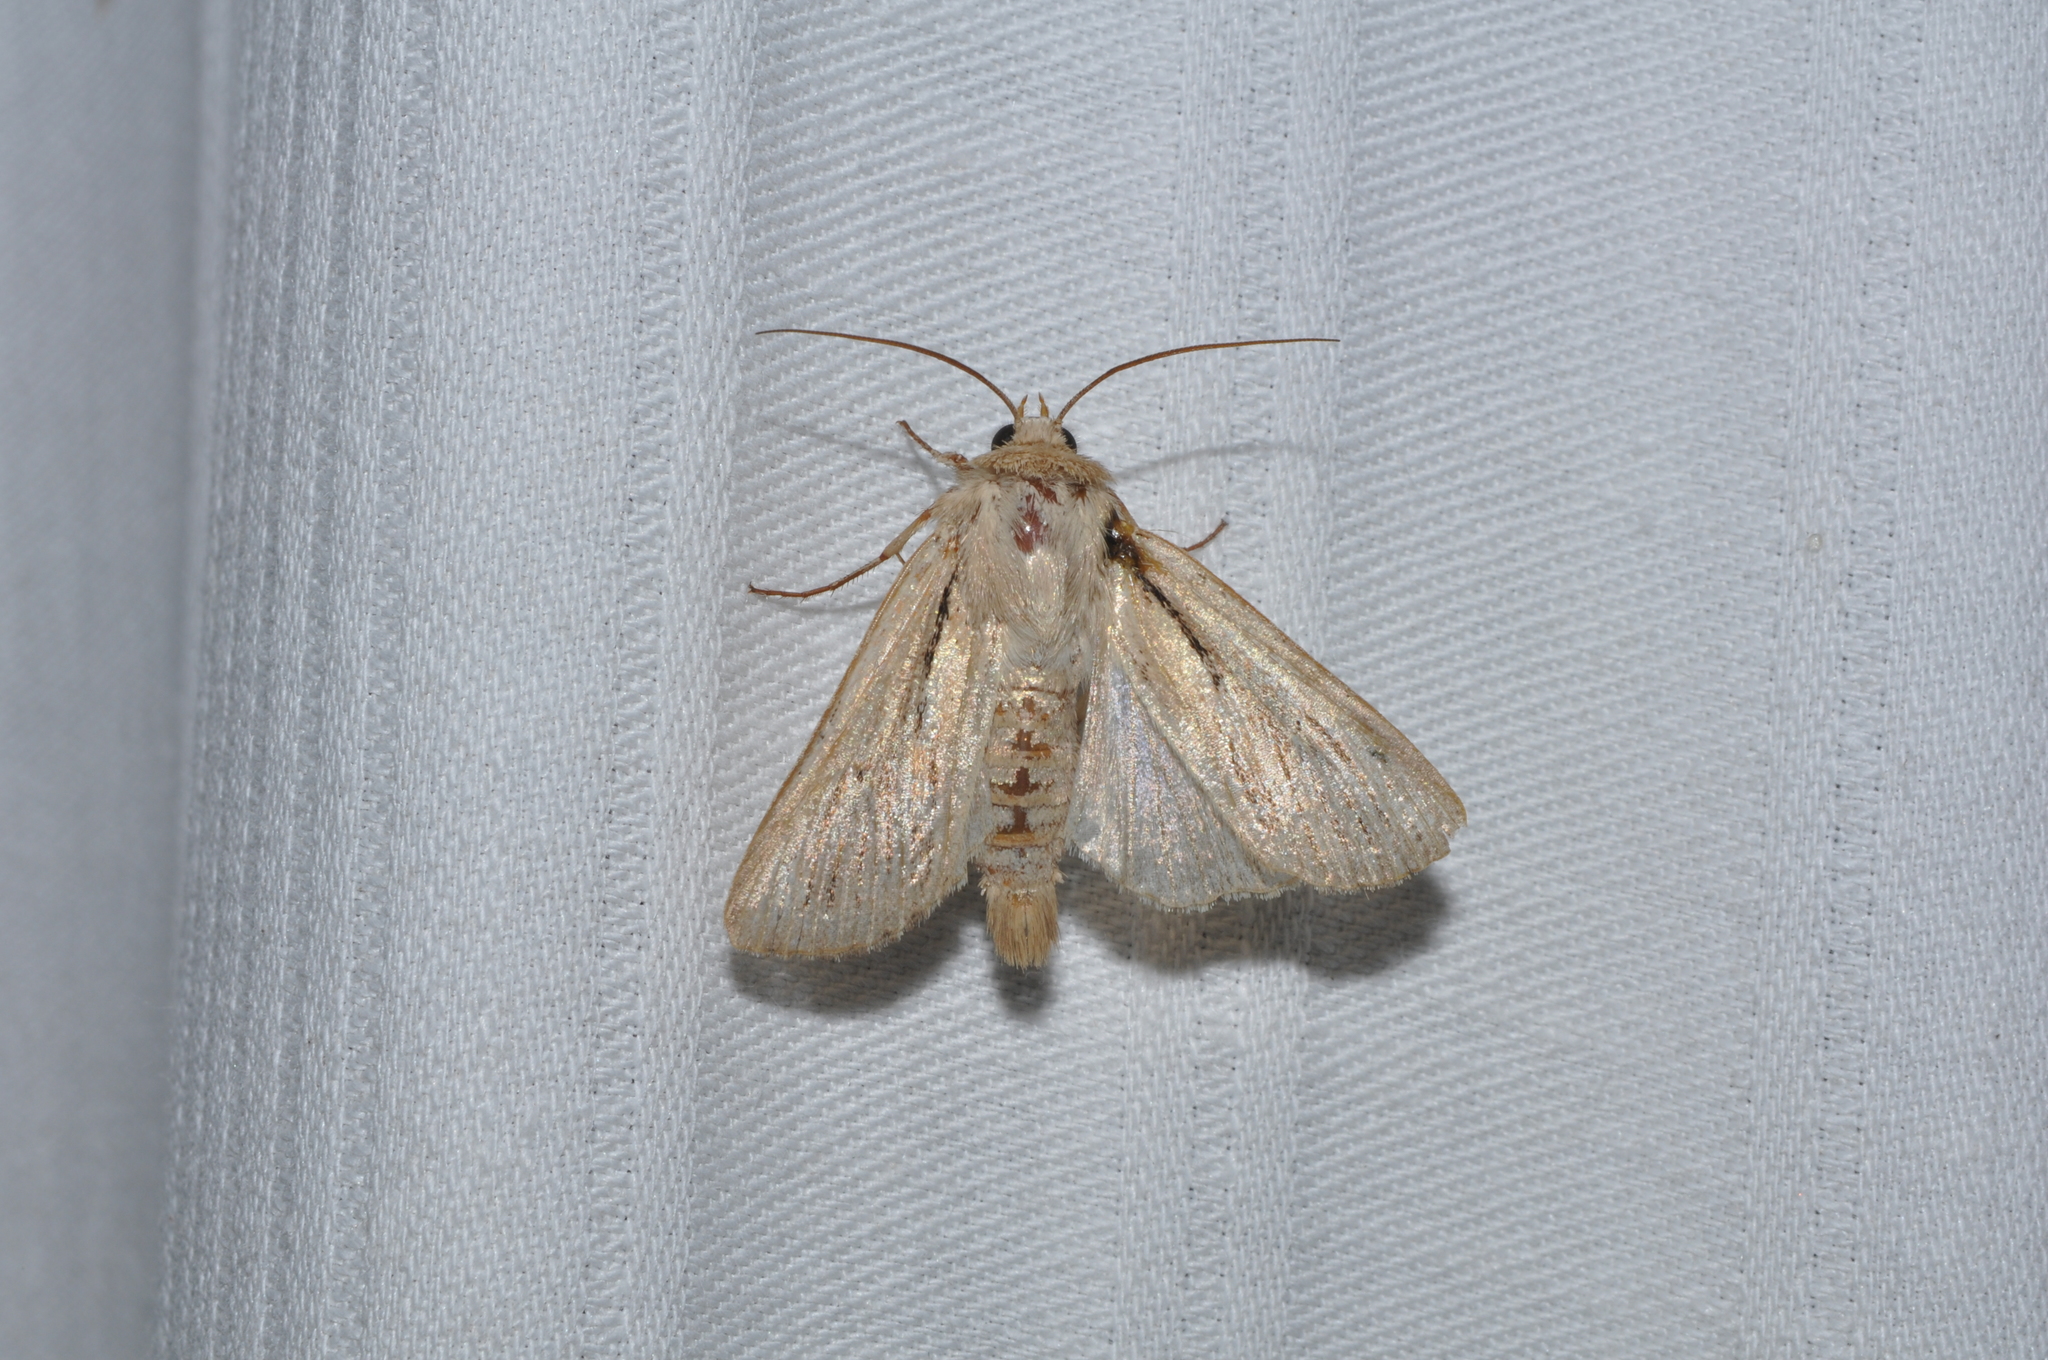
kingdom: Animalia
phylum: Arthropoda
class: Insecta
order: Lepidoptera
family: Noctuidae
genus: Leucania
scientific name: Leucania comma
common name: Shoulder-striped wainscot
